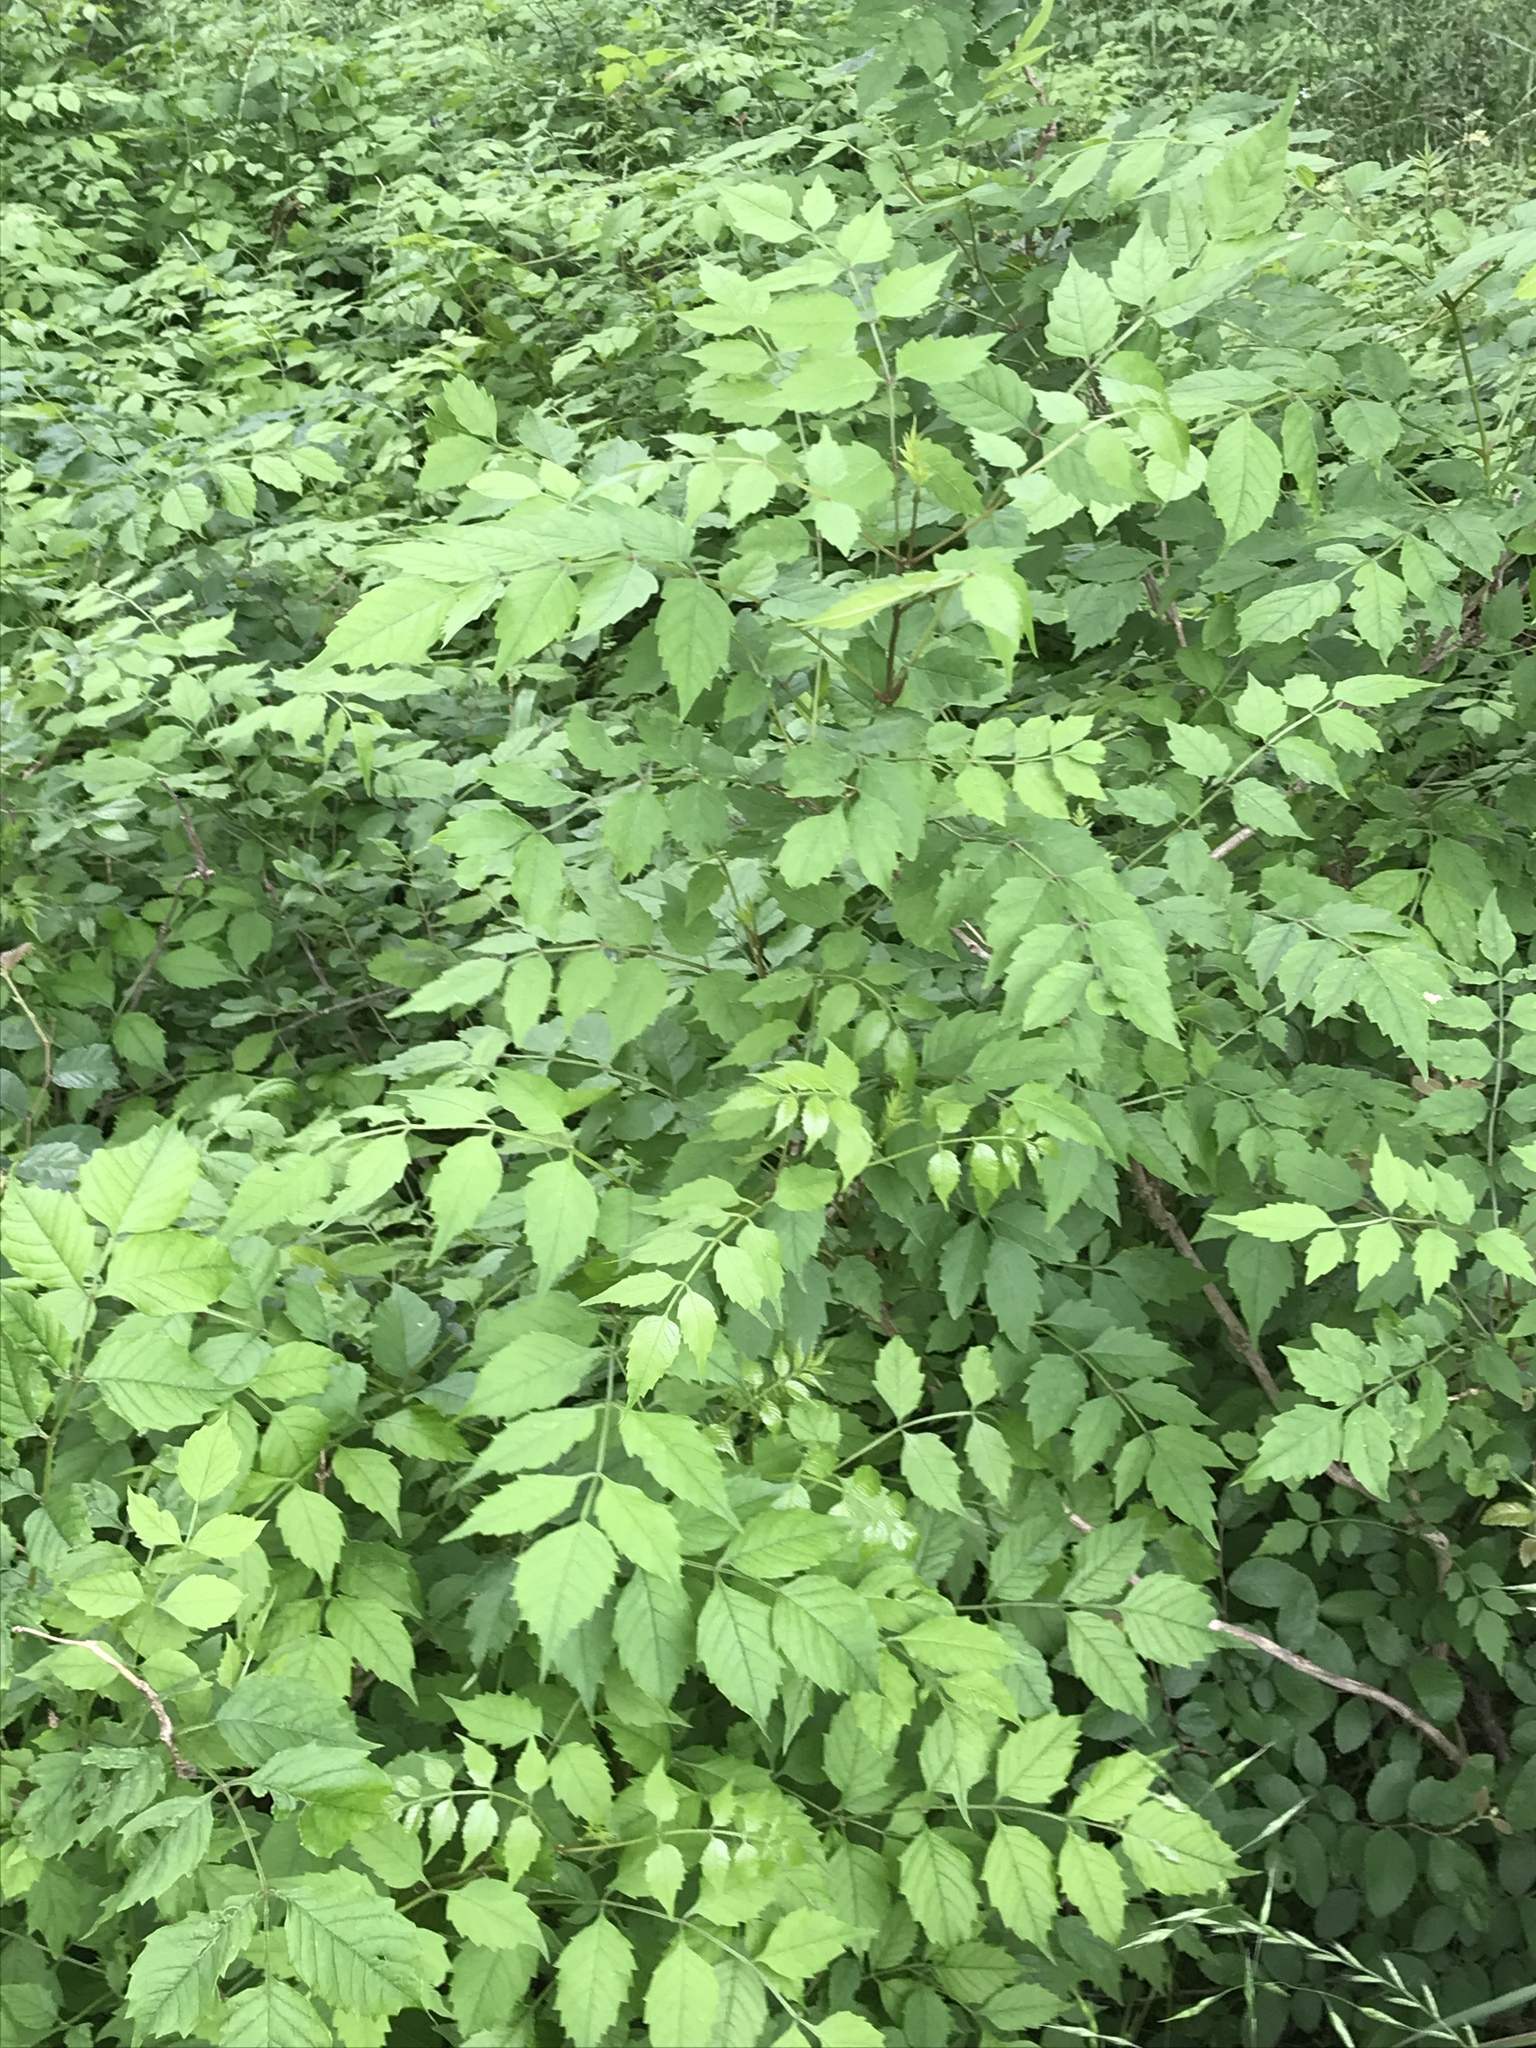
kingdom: Plantae
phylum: Tracheophyta
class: Magnoliopsida
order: Lamiales
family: Bignoniaceae
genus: Campsis
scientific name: Campsis radicans
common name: Trumpet-creeper
